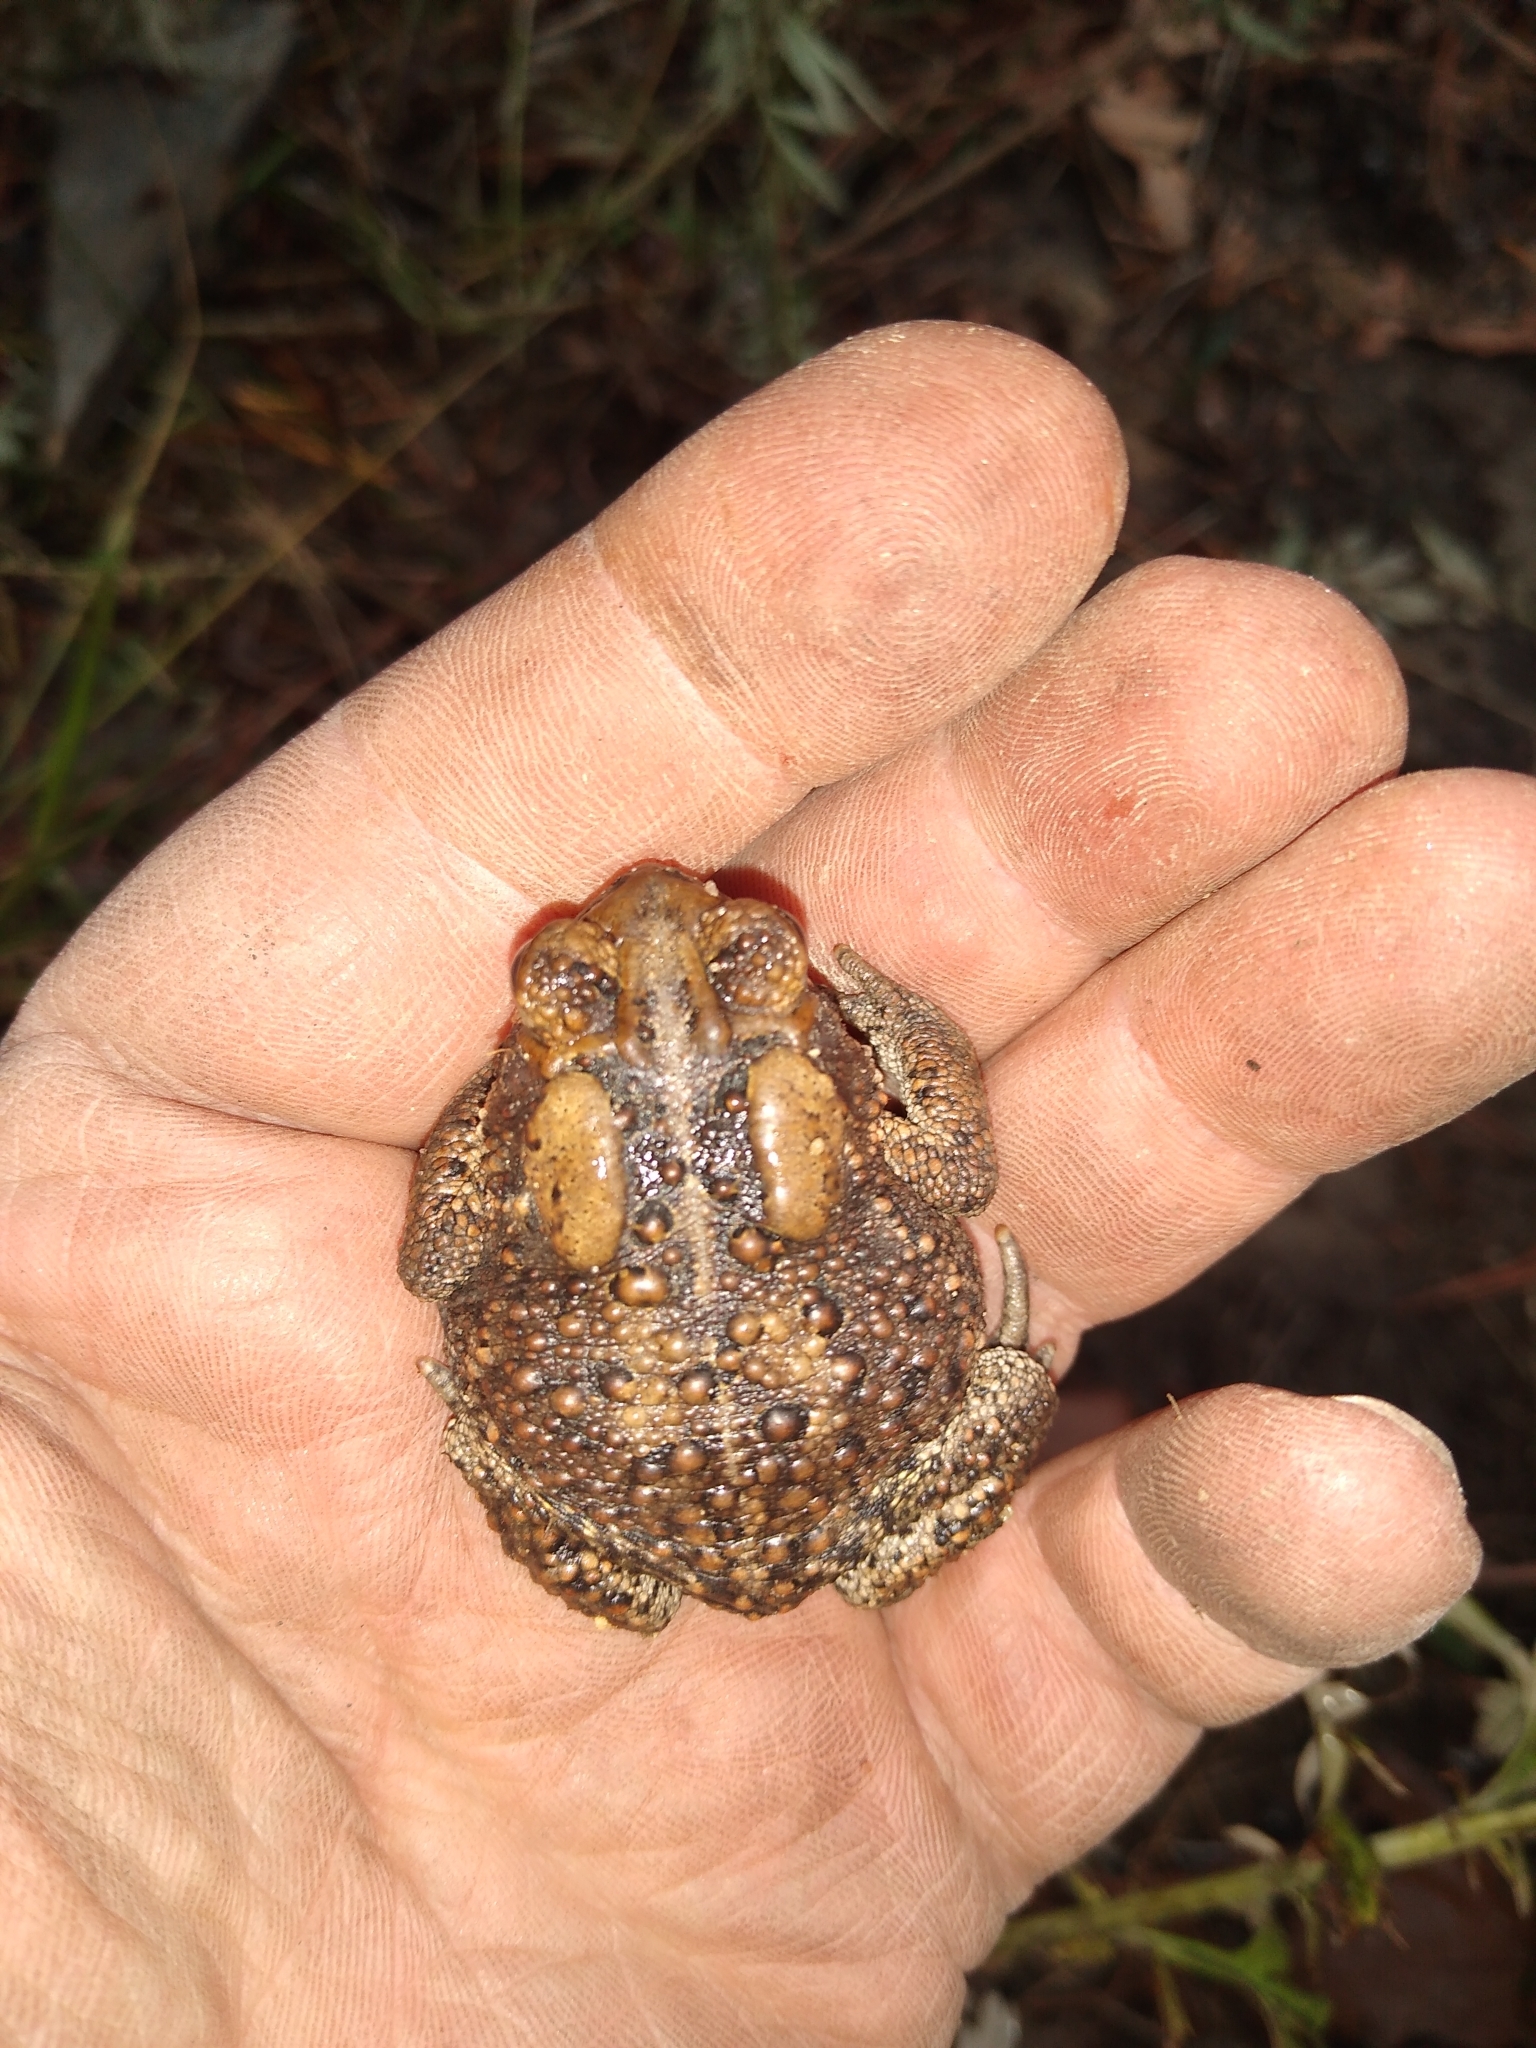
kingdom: Animalia
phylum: Chordata
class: Amphibia
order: Anura
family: Bufonidae
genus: Anaxyrus
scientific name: Anaxyrus americanus
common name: American toad
